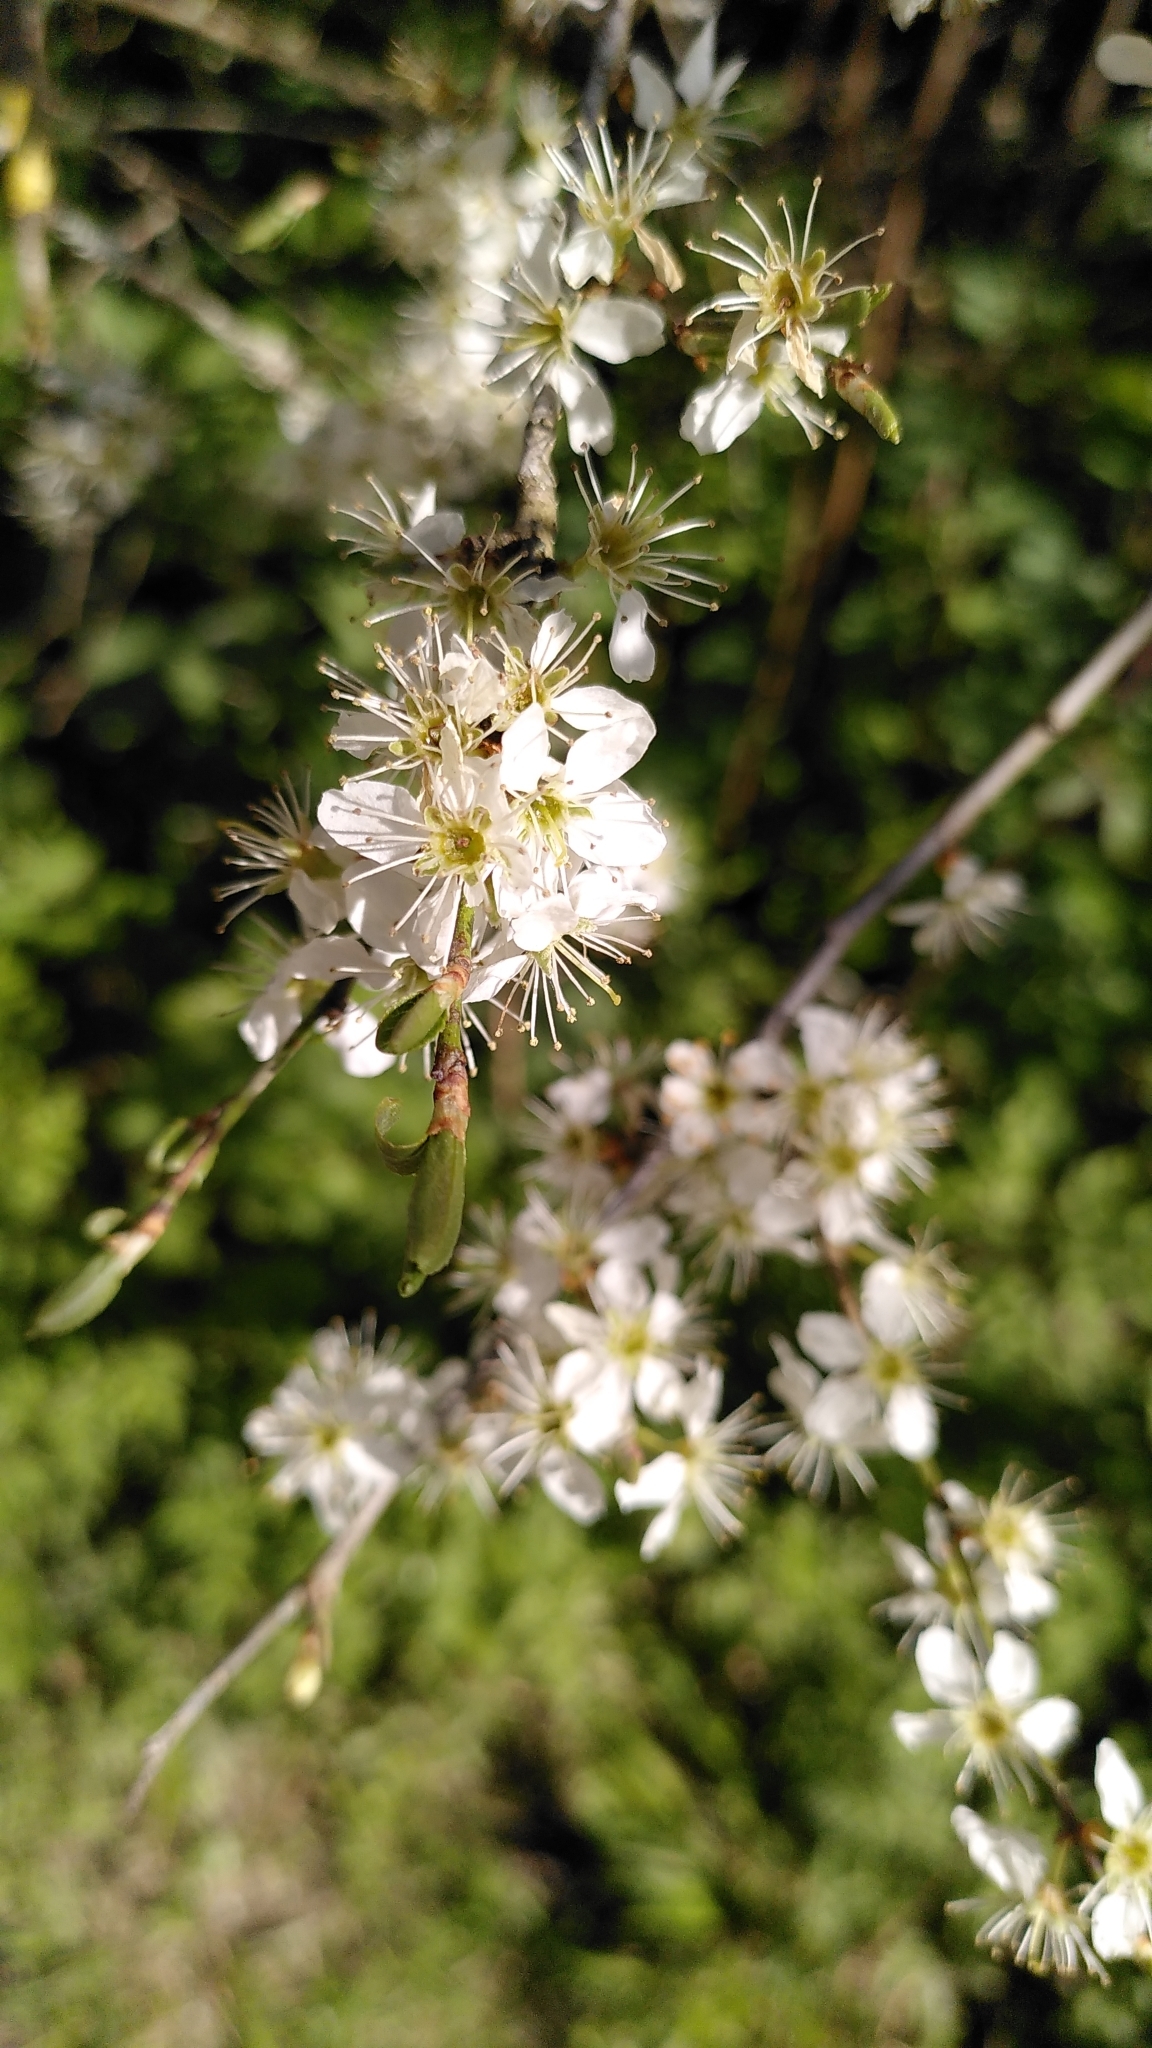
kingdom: Plantae
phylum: Tracheophyta
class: Magnoliopsida
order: Rosales
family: Rosaceae
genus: Prunus
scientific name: Prunus spinosa
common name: Blackthorn
